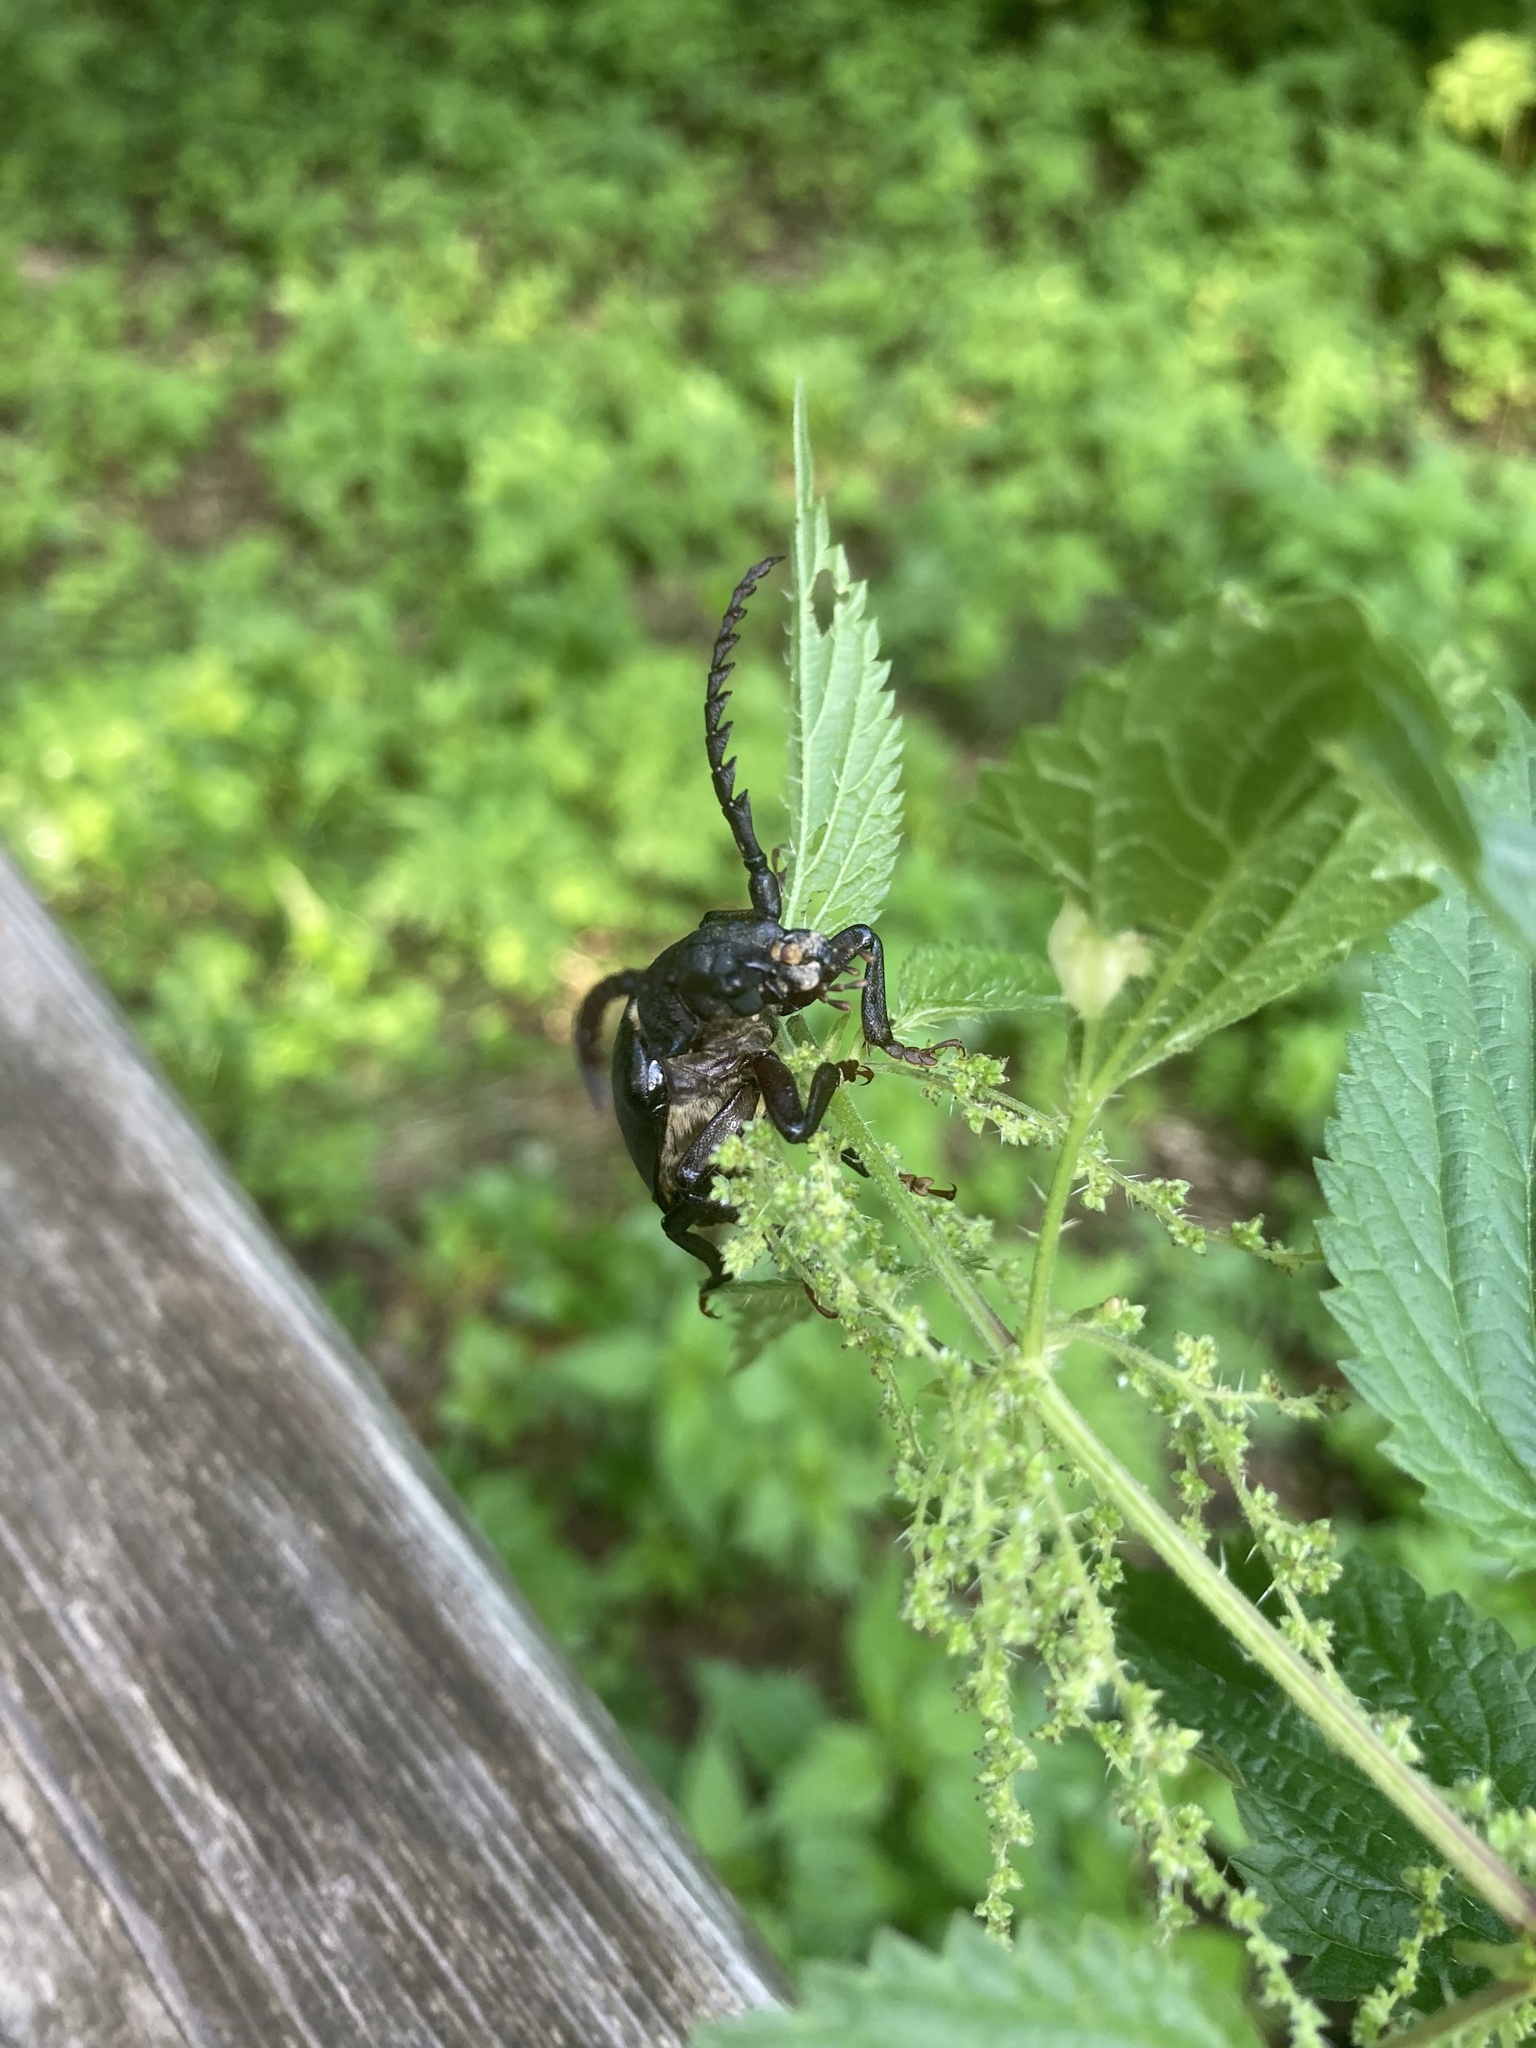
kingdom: Animalia
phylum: Arthropoda
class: Insecta
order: Coleoptera
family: Cerambycidae
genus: Prionus
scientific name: Prionus coriarius
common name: Tanner beetle
